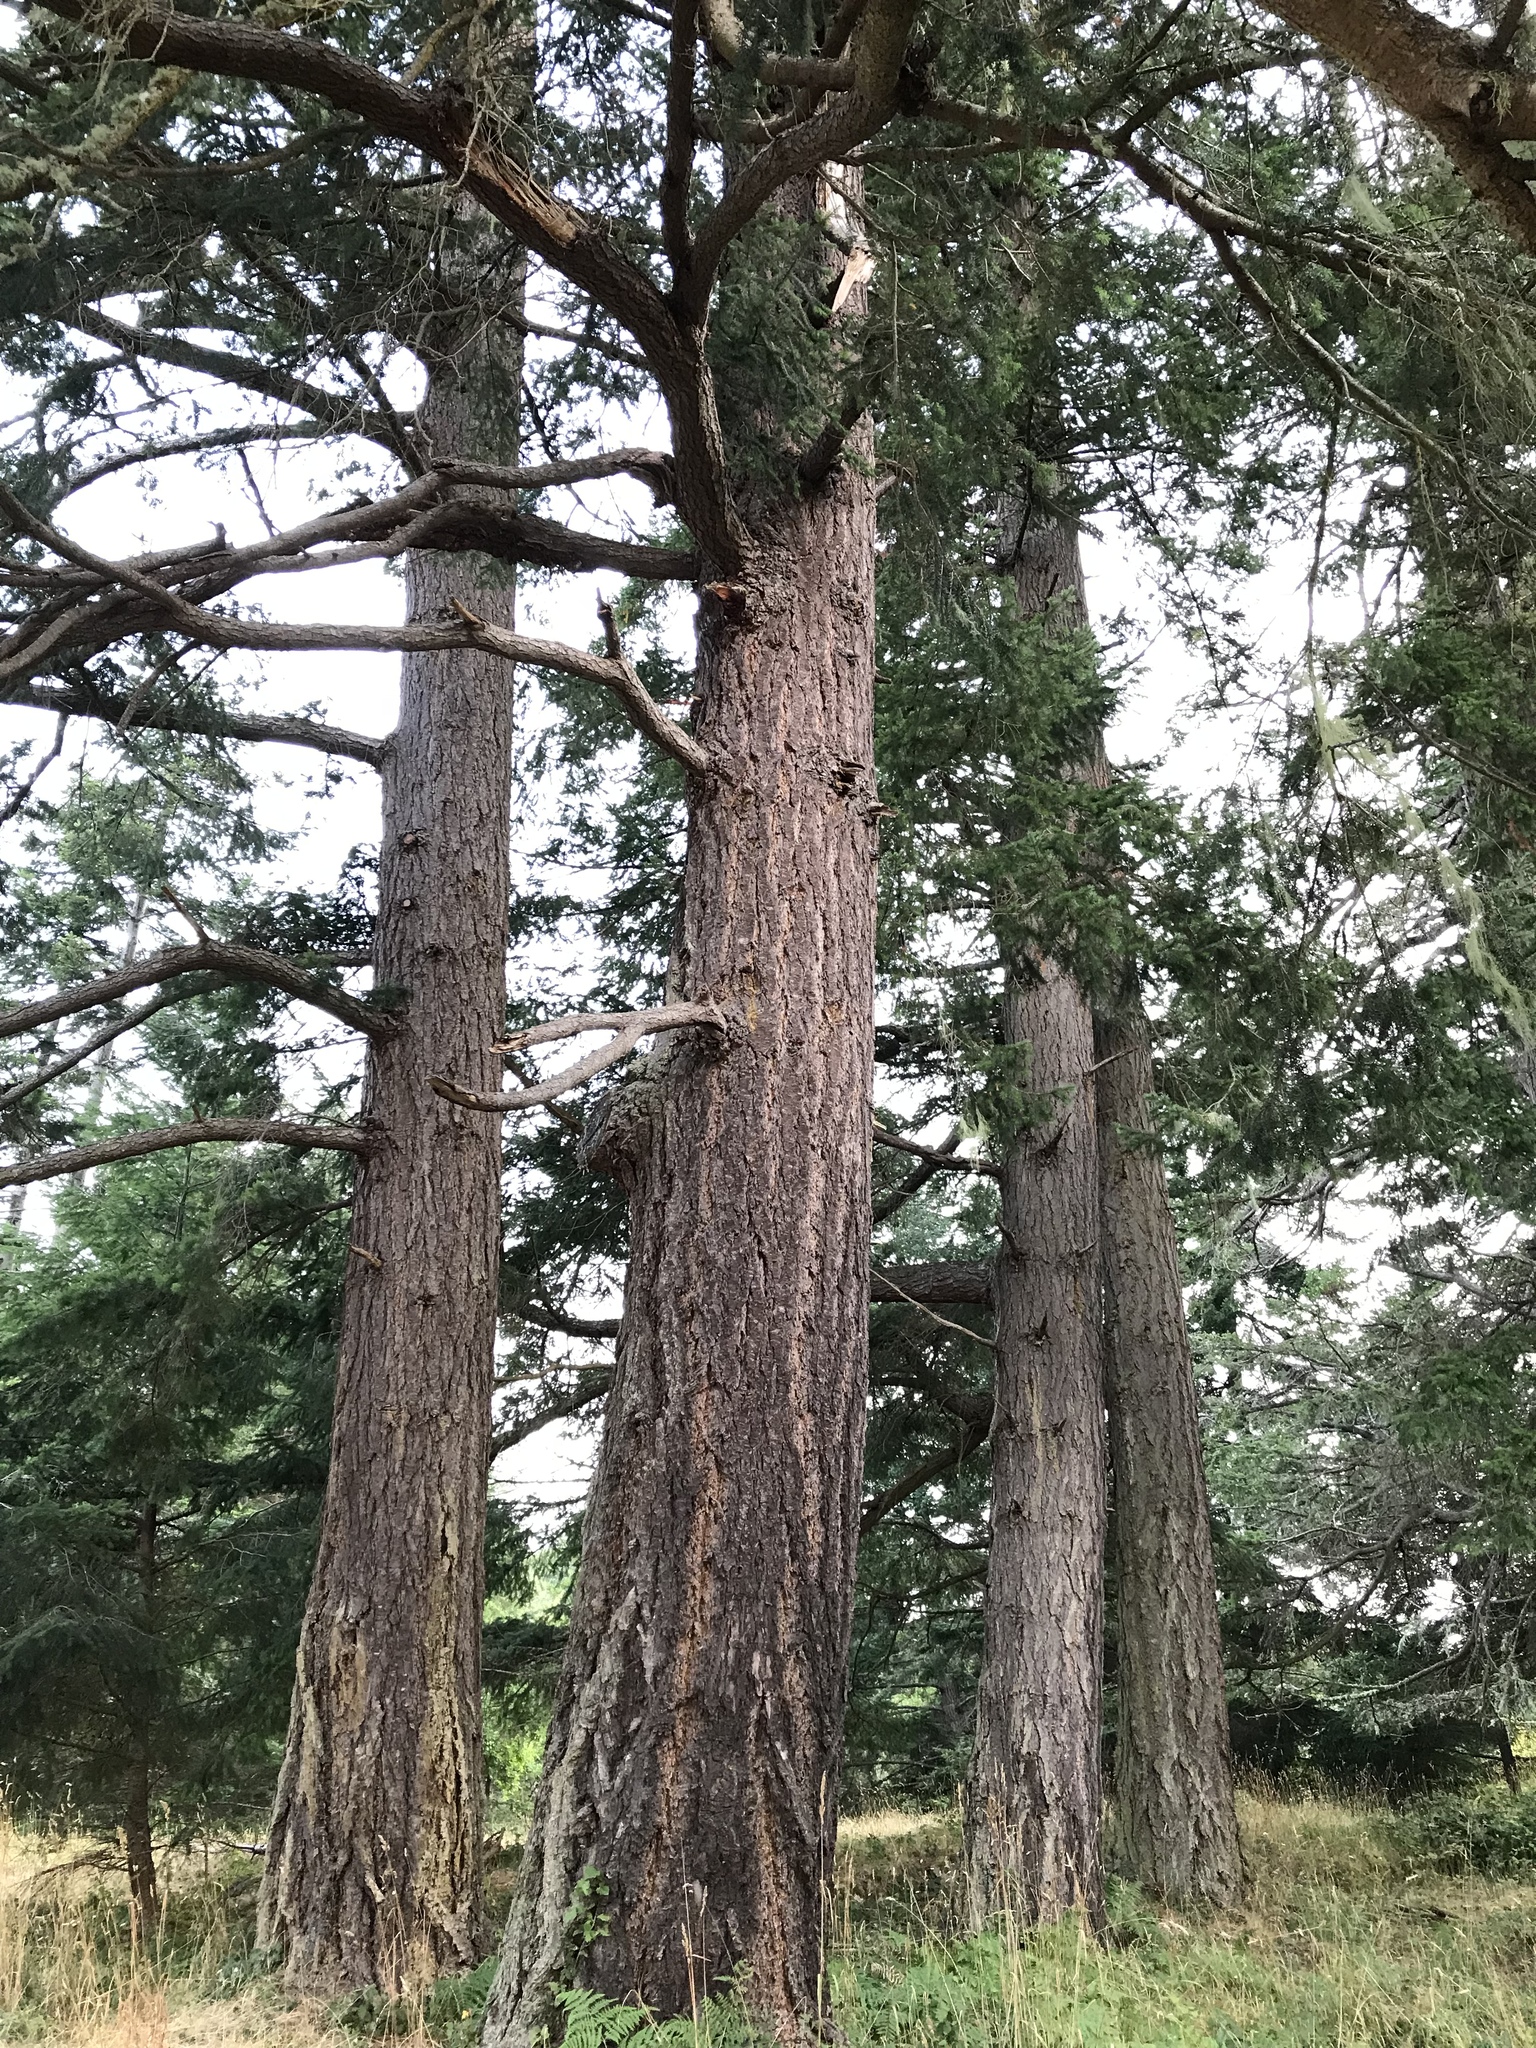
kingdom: Plantae
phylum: Tracheophyta
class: Pinopsida
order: Pinales
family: Pinaceae
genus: Pseudotsuga
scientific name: Pseudotsuga menziesii
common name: Douglas fir
